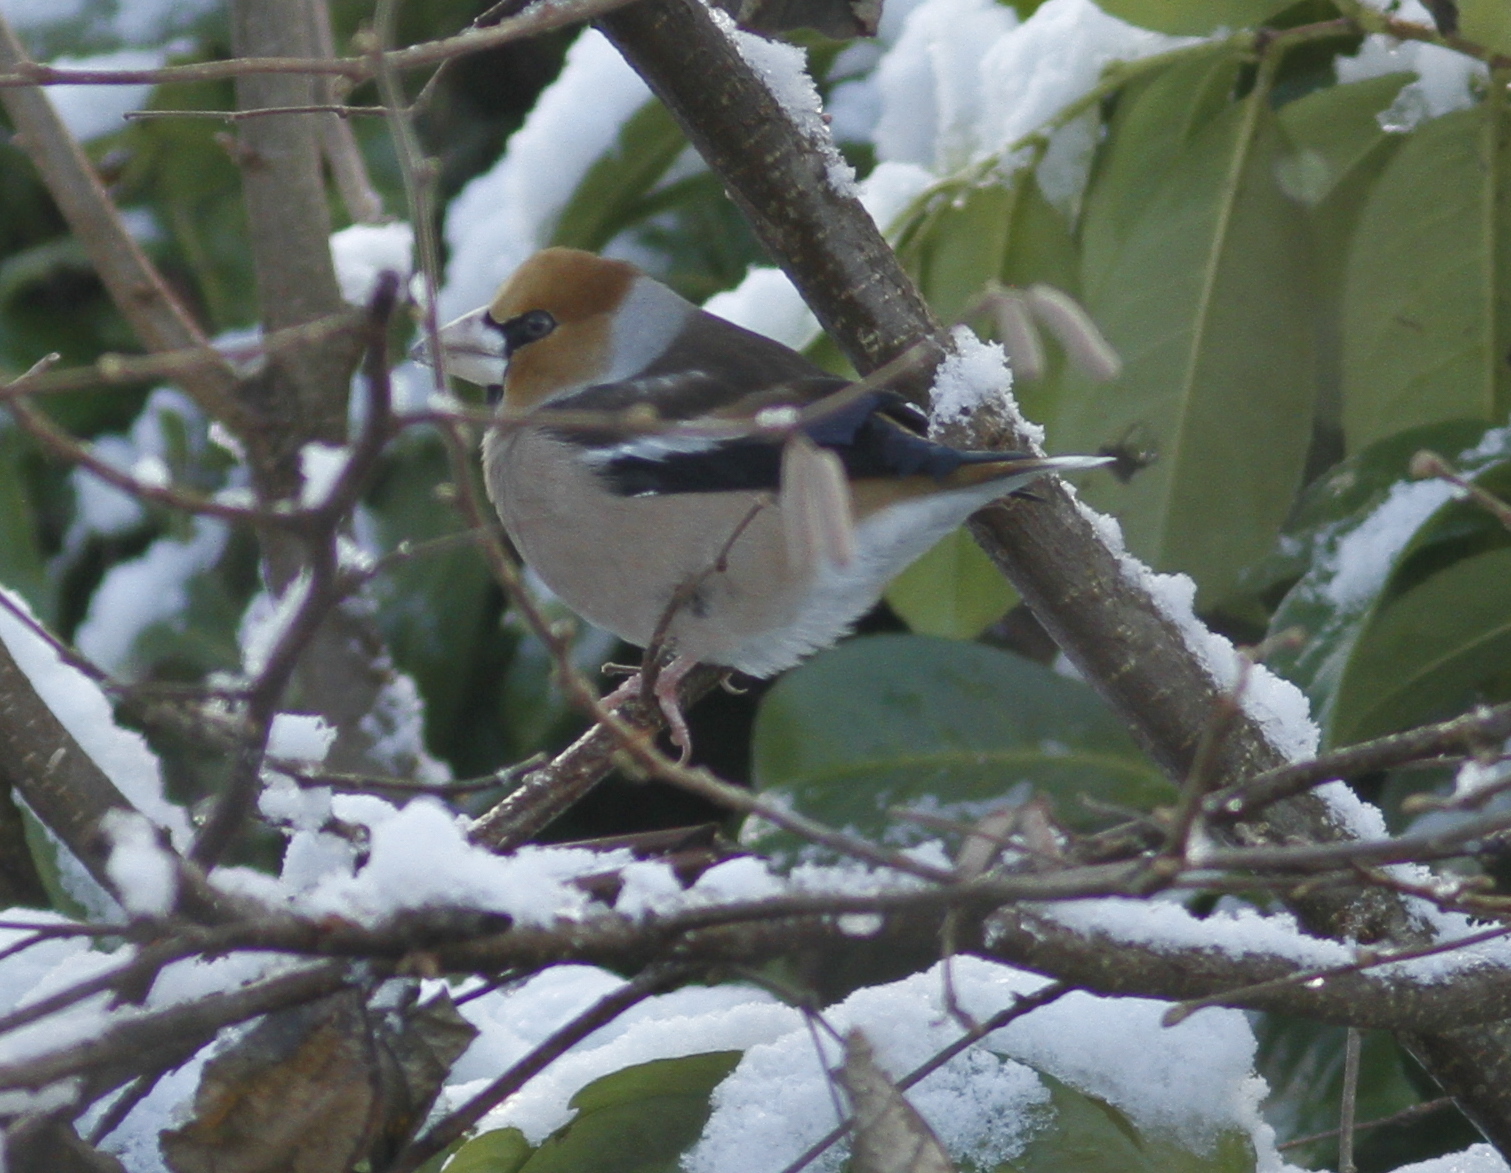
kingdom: Animalia
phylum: Chordata
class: Aves
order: Passeriformes
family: Fringillidae
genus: Coccothraustes
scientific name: Coccothraustes coccothraustes
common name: Hawfinch
